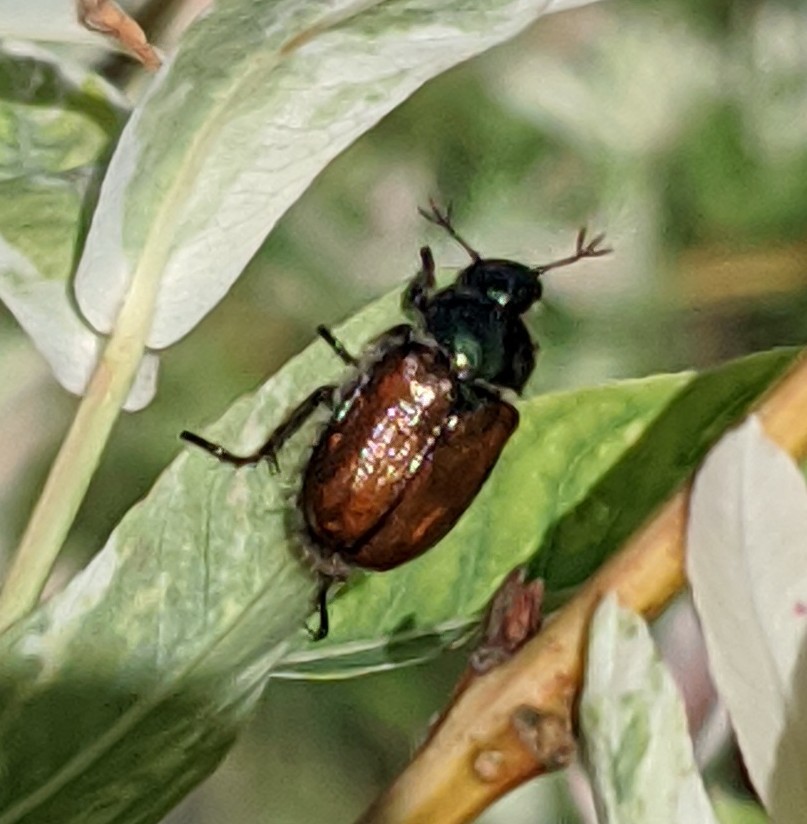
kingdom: Animalia
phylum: Arthropoda
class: Insecta
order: Coleoptera
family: Scarabaeidae
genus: Phyllopertha
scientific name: Phyllopertha horticola
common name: Garden chafer
